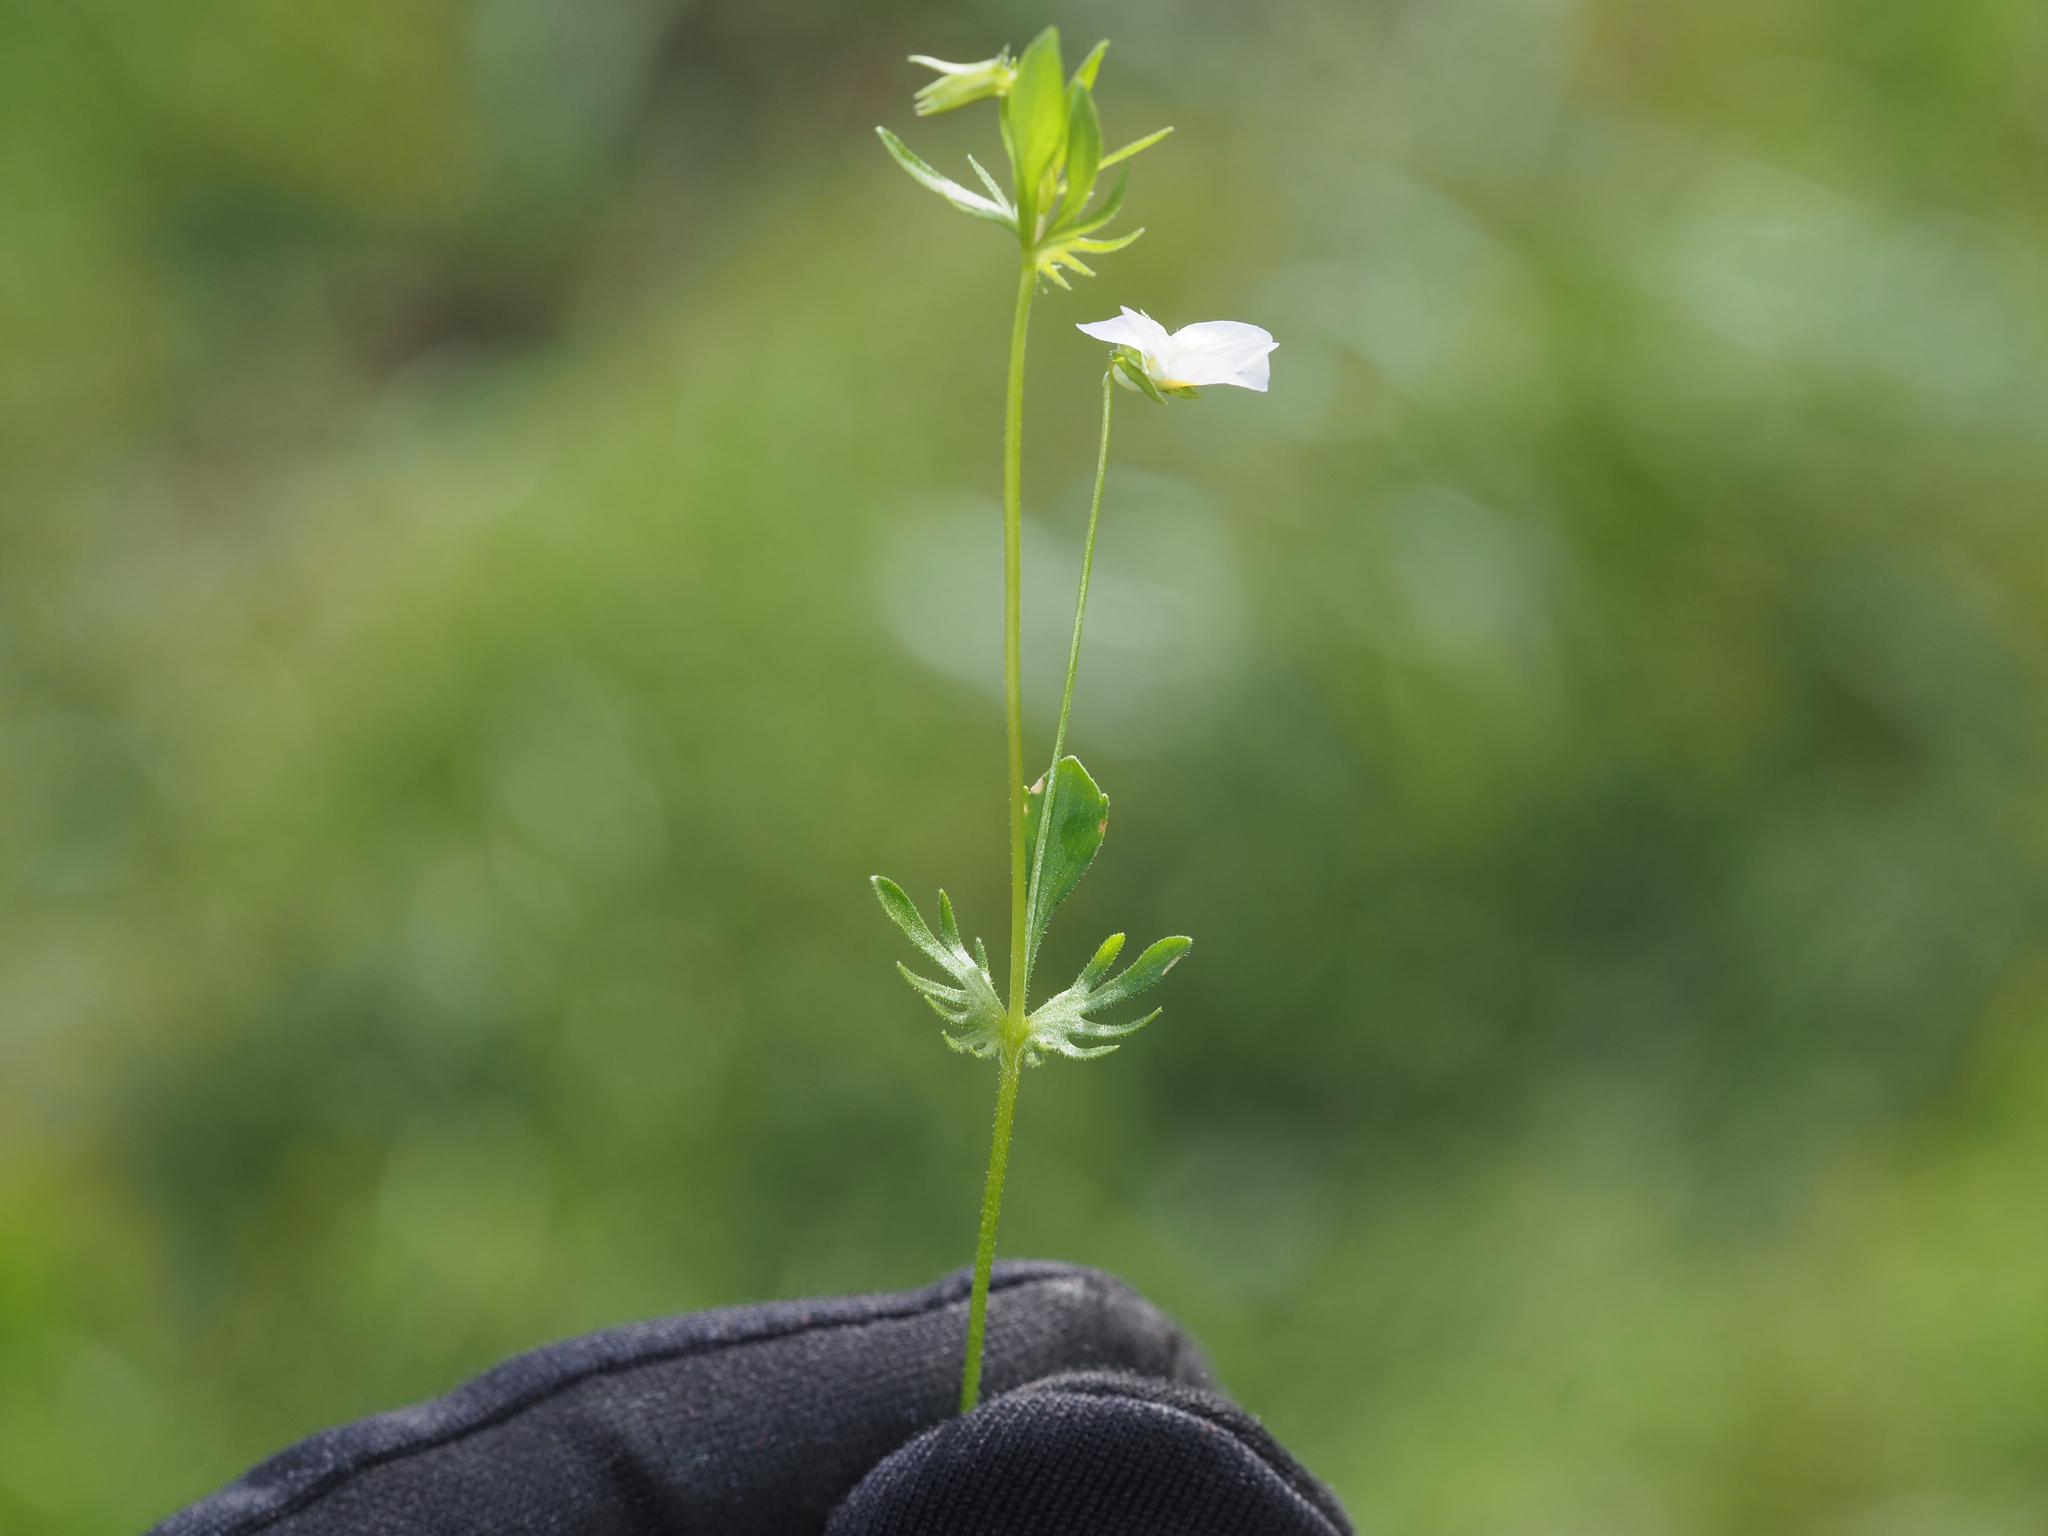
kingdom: Plantae
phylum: Tracheophyta
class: Magnoliopsida
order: Malpighiales
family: Violaceae
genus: Viola
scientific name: Viola rafinesquei
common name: American field pansy
